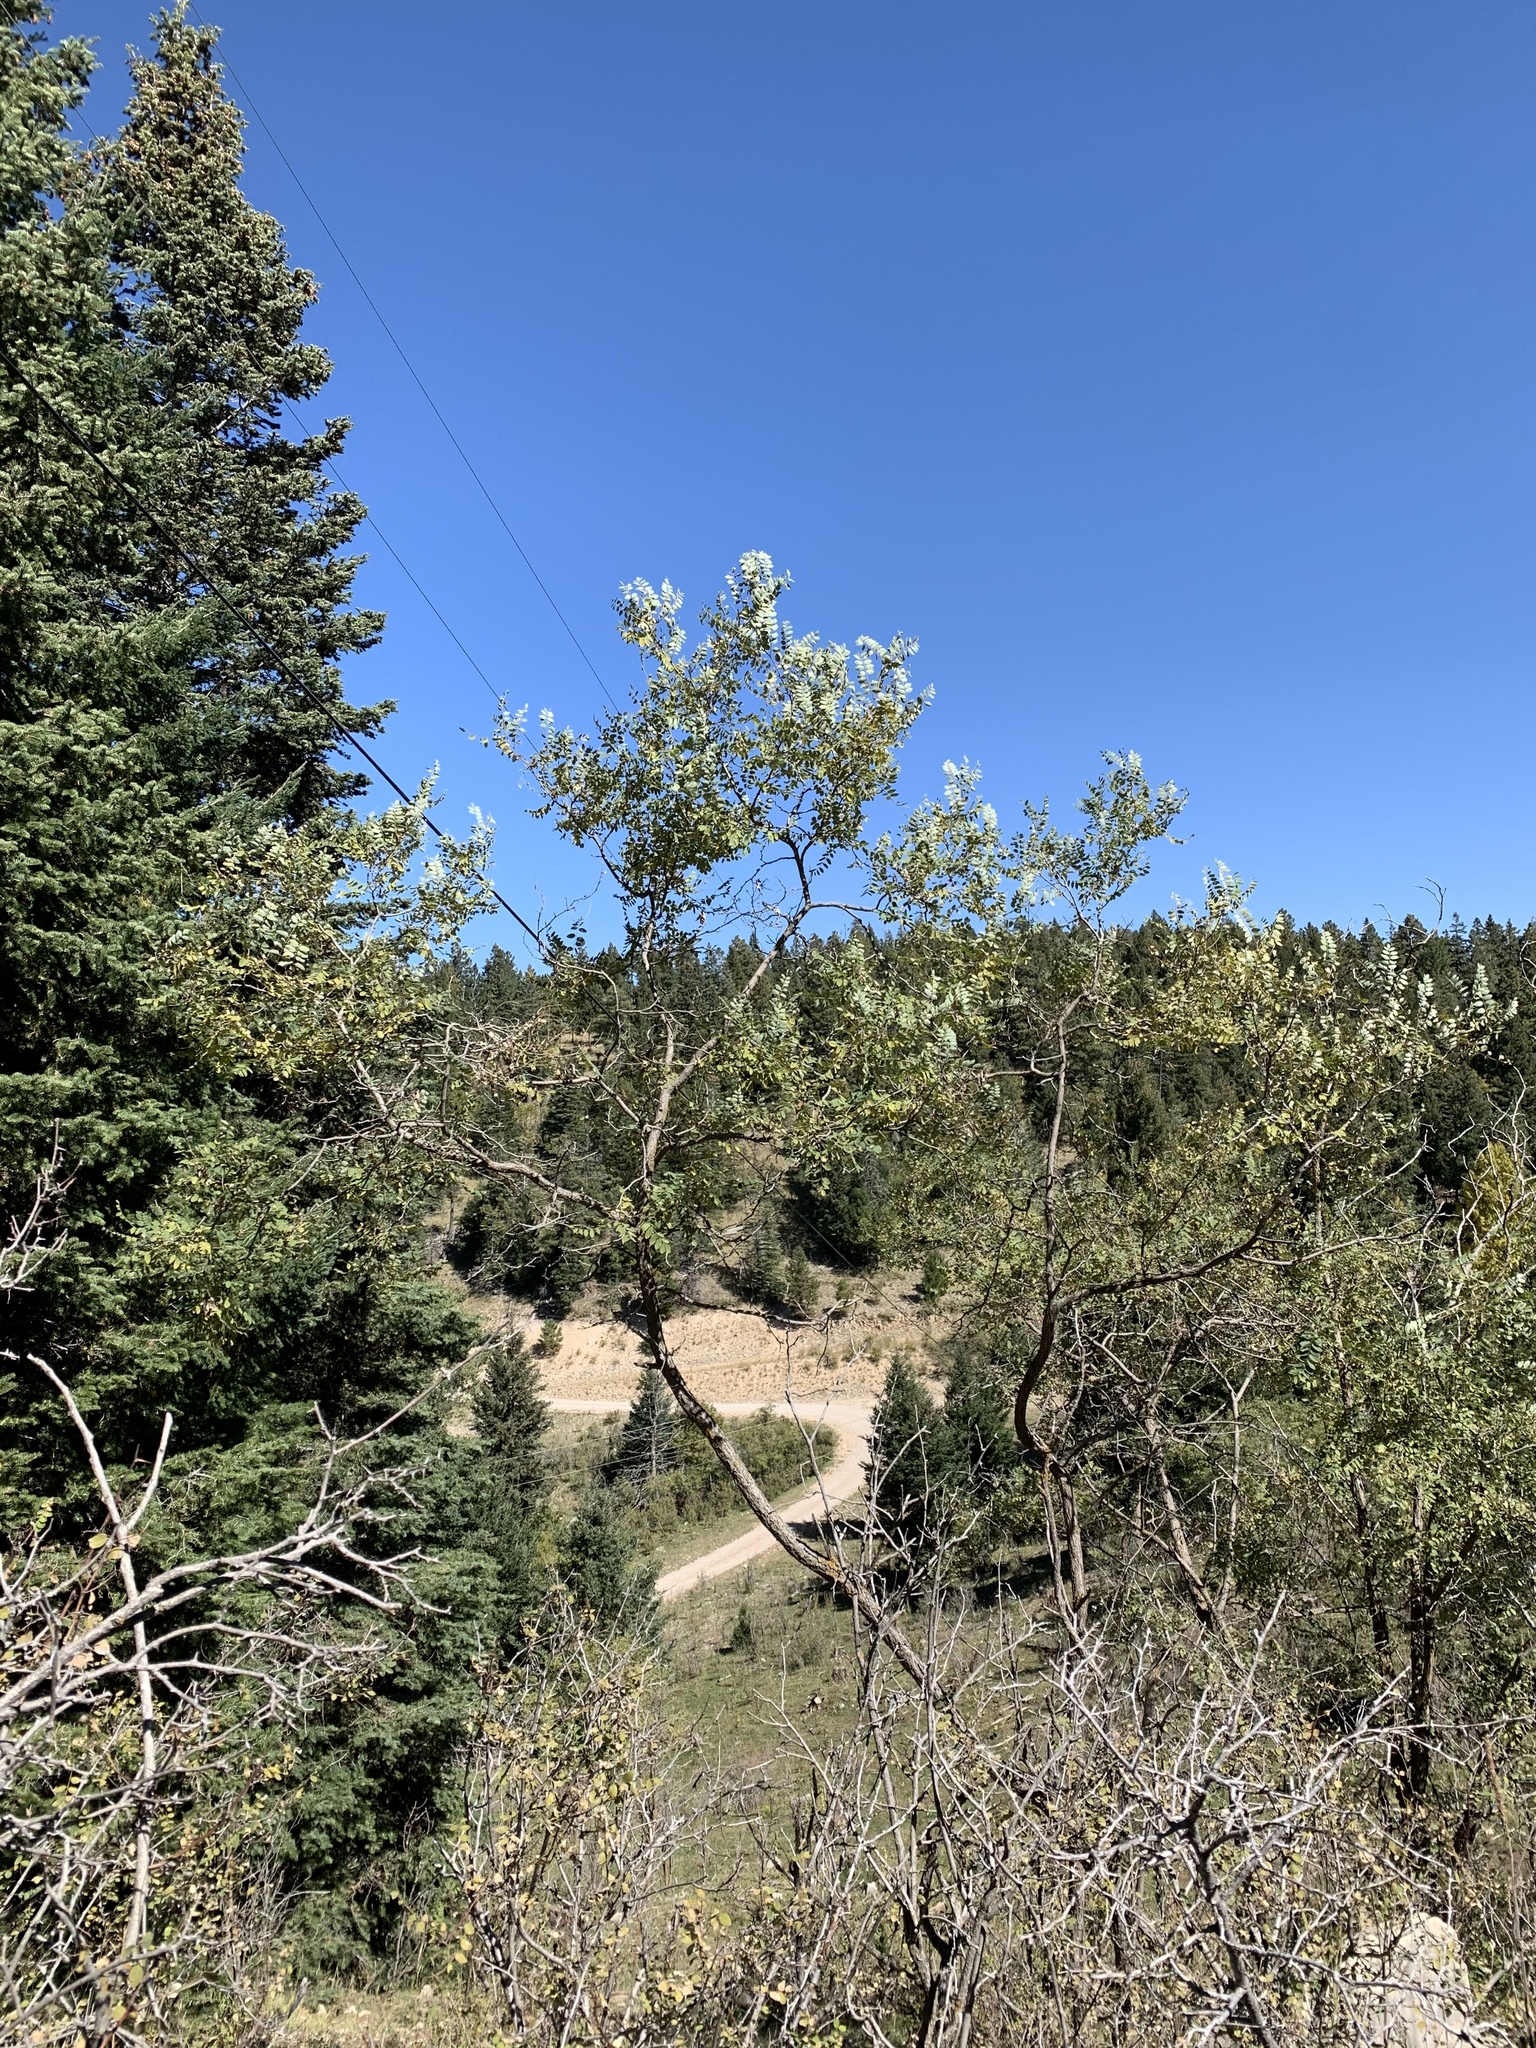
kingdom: Plantae
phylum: Tracheophyta
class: Magnoliopsida
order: Fabales
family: Fabaceae
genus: Robinia
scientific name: Robinia neomexicana
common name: New mexico locust
